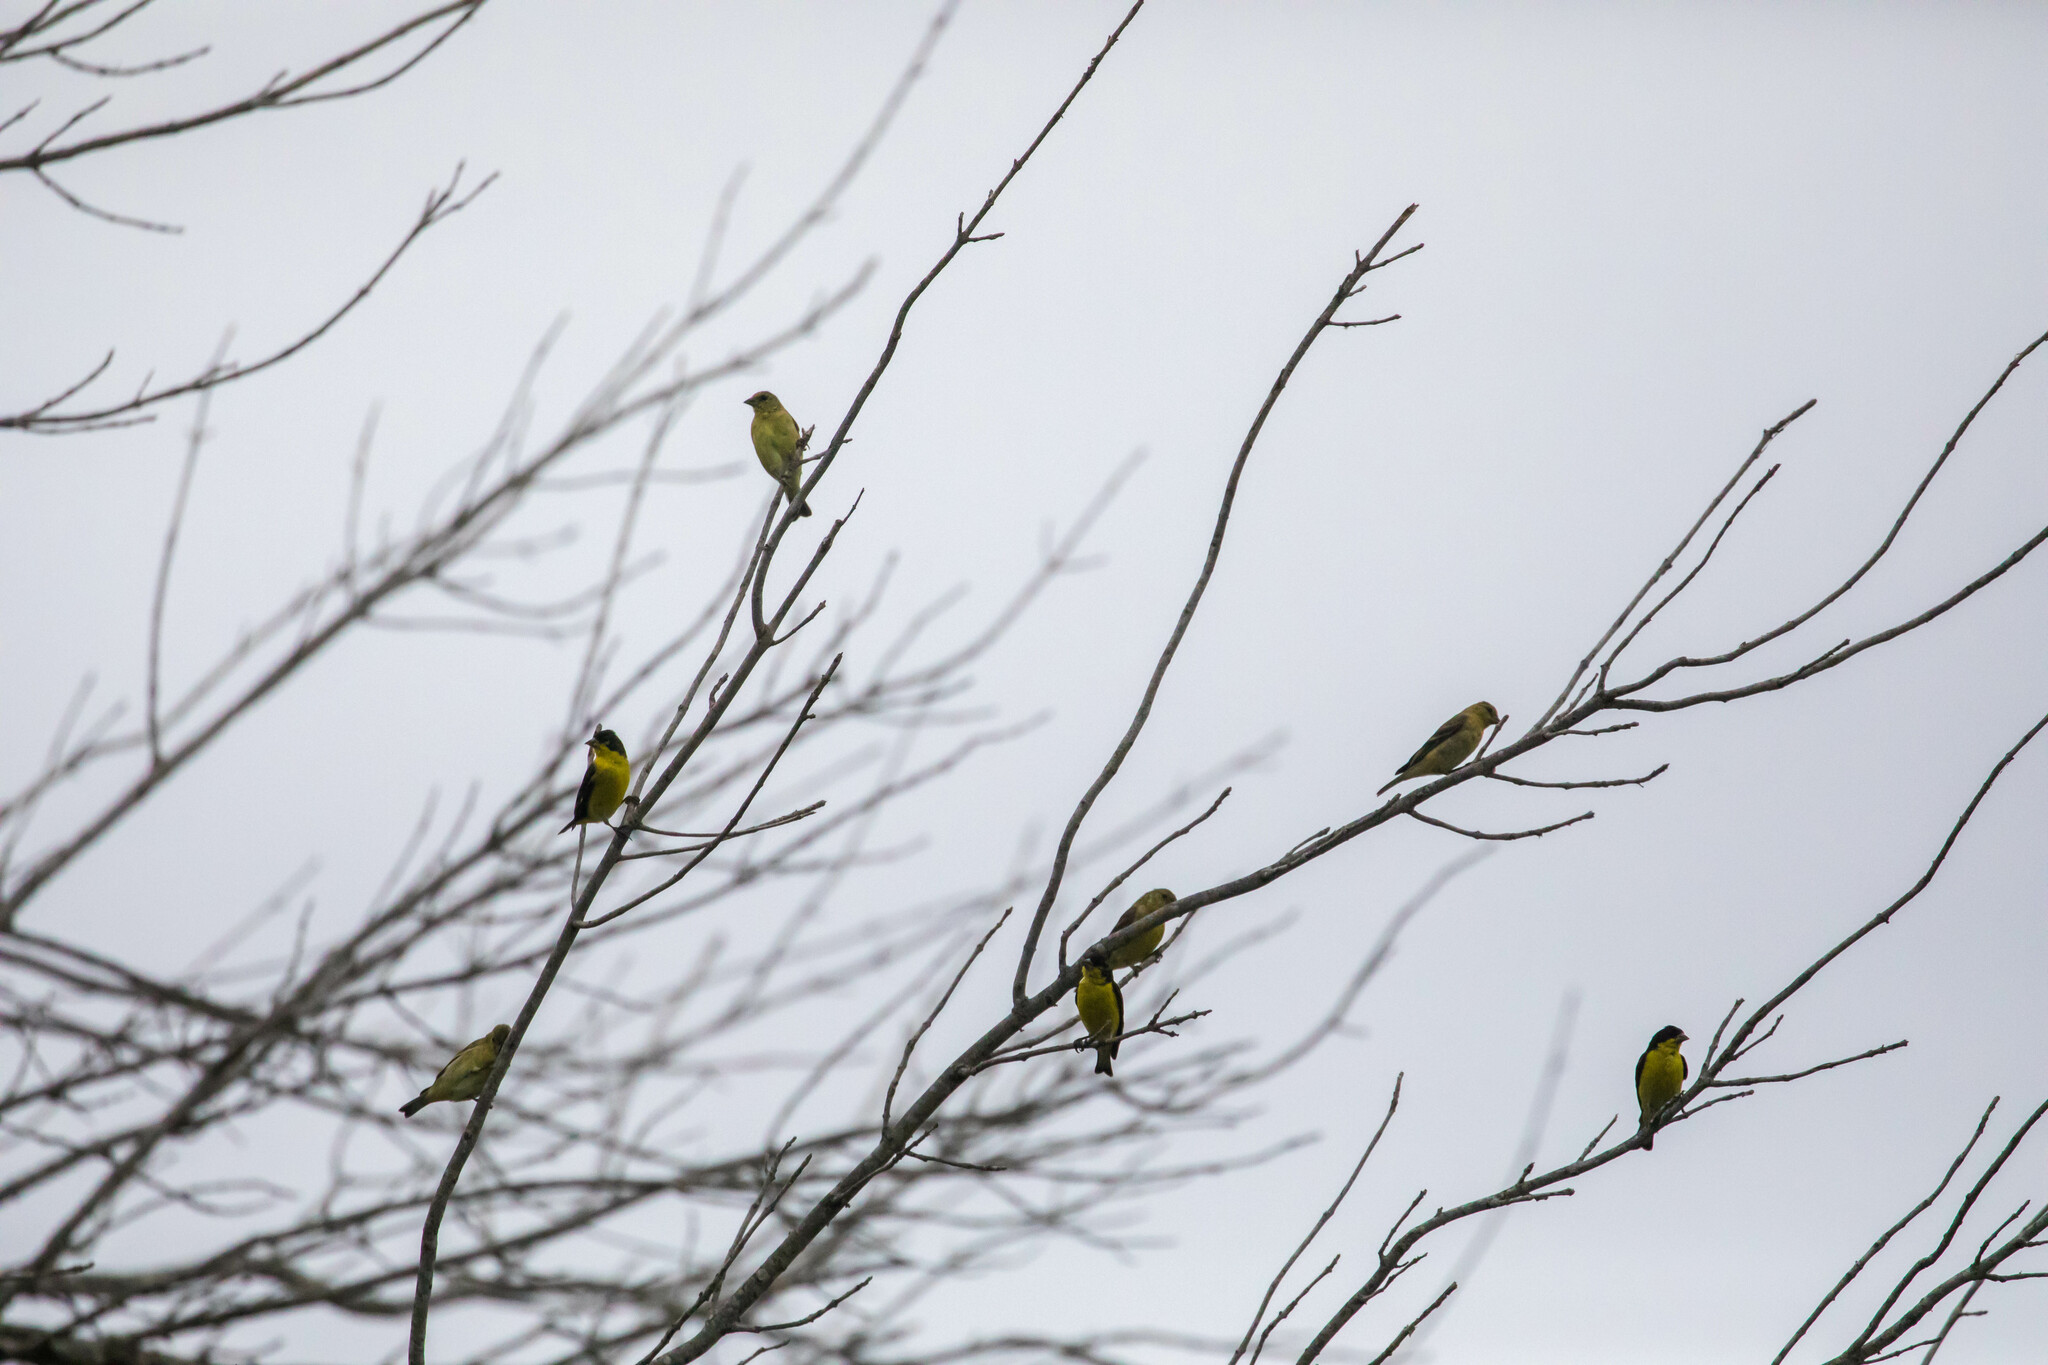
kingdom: Animalia
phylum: Chordata
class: Aves
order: Passeriformes
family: Fringillidae
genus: Spinus
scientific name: Spinus psaltria
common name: Lesser goldfinch
